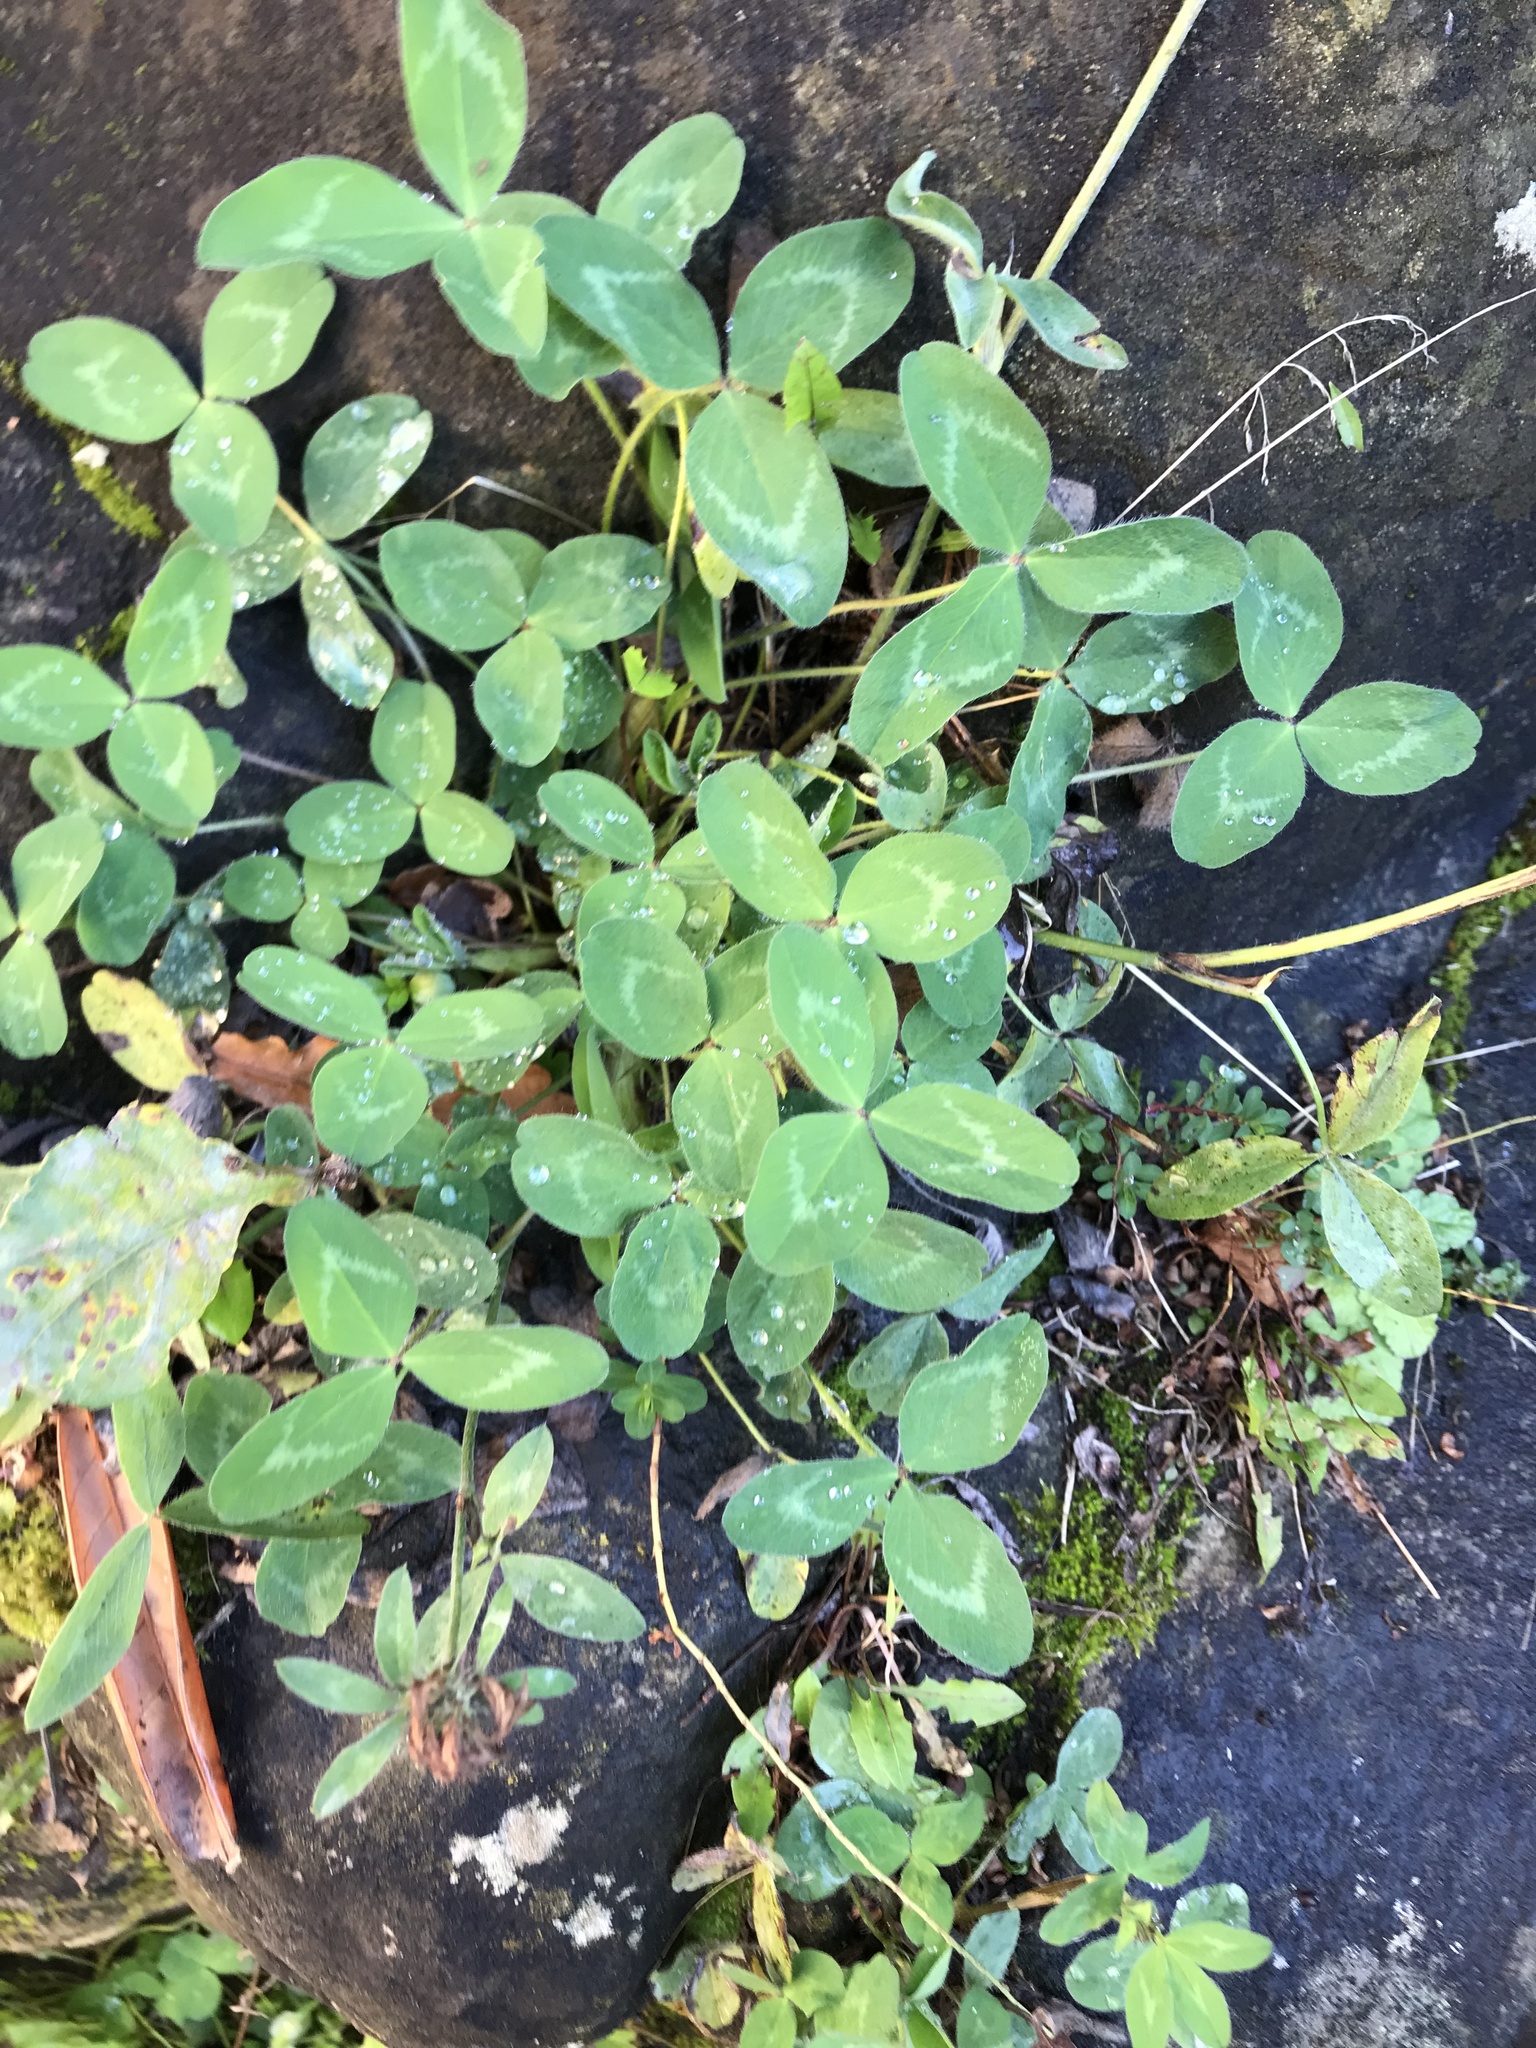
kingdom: Plantae
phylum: Tracheophyta
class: Magnoliopsida
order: Fabales
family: Fabaceae
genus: Trifolium
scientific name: Trifolium pratense
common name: Red clover
